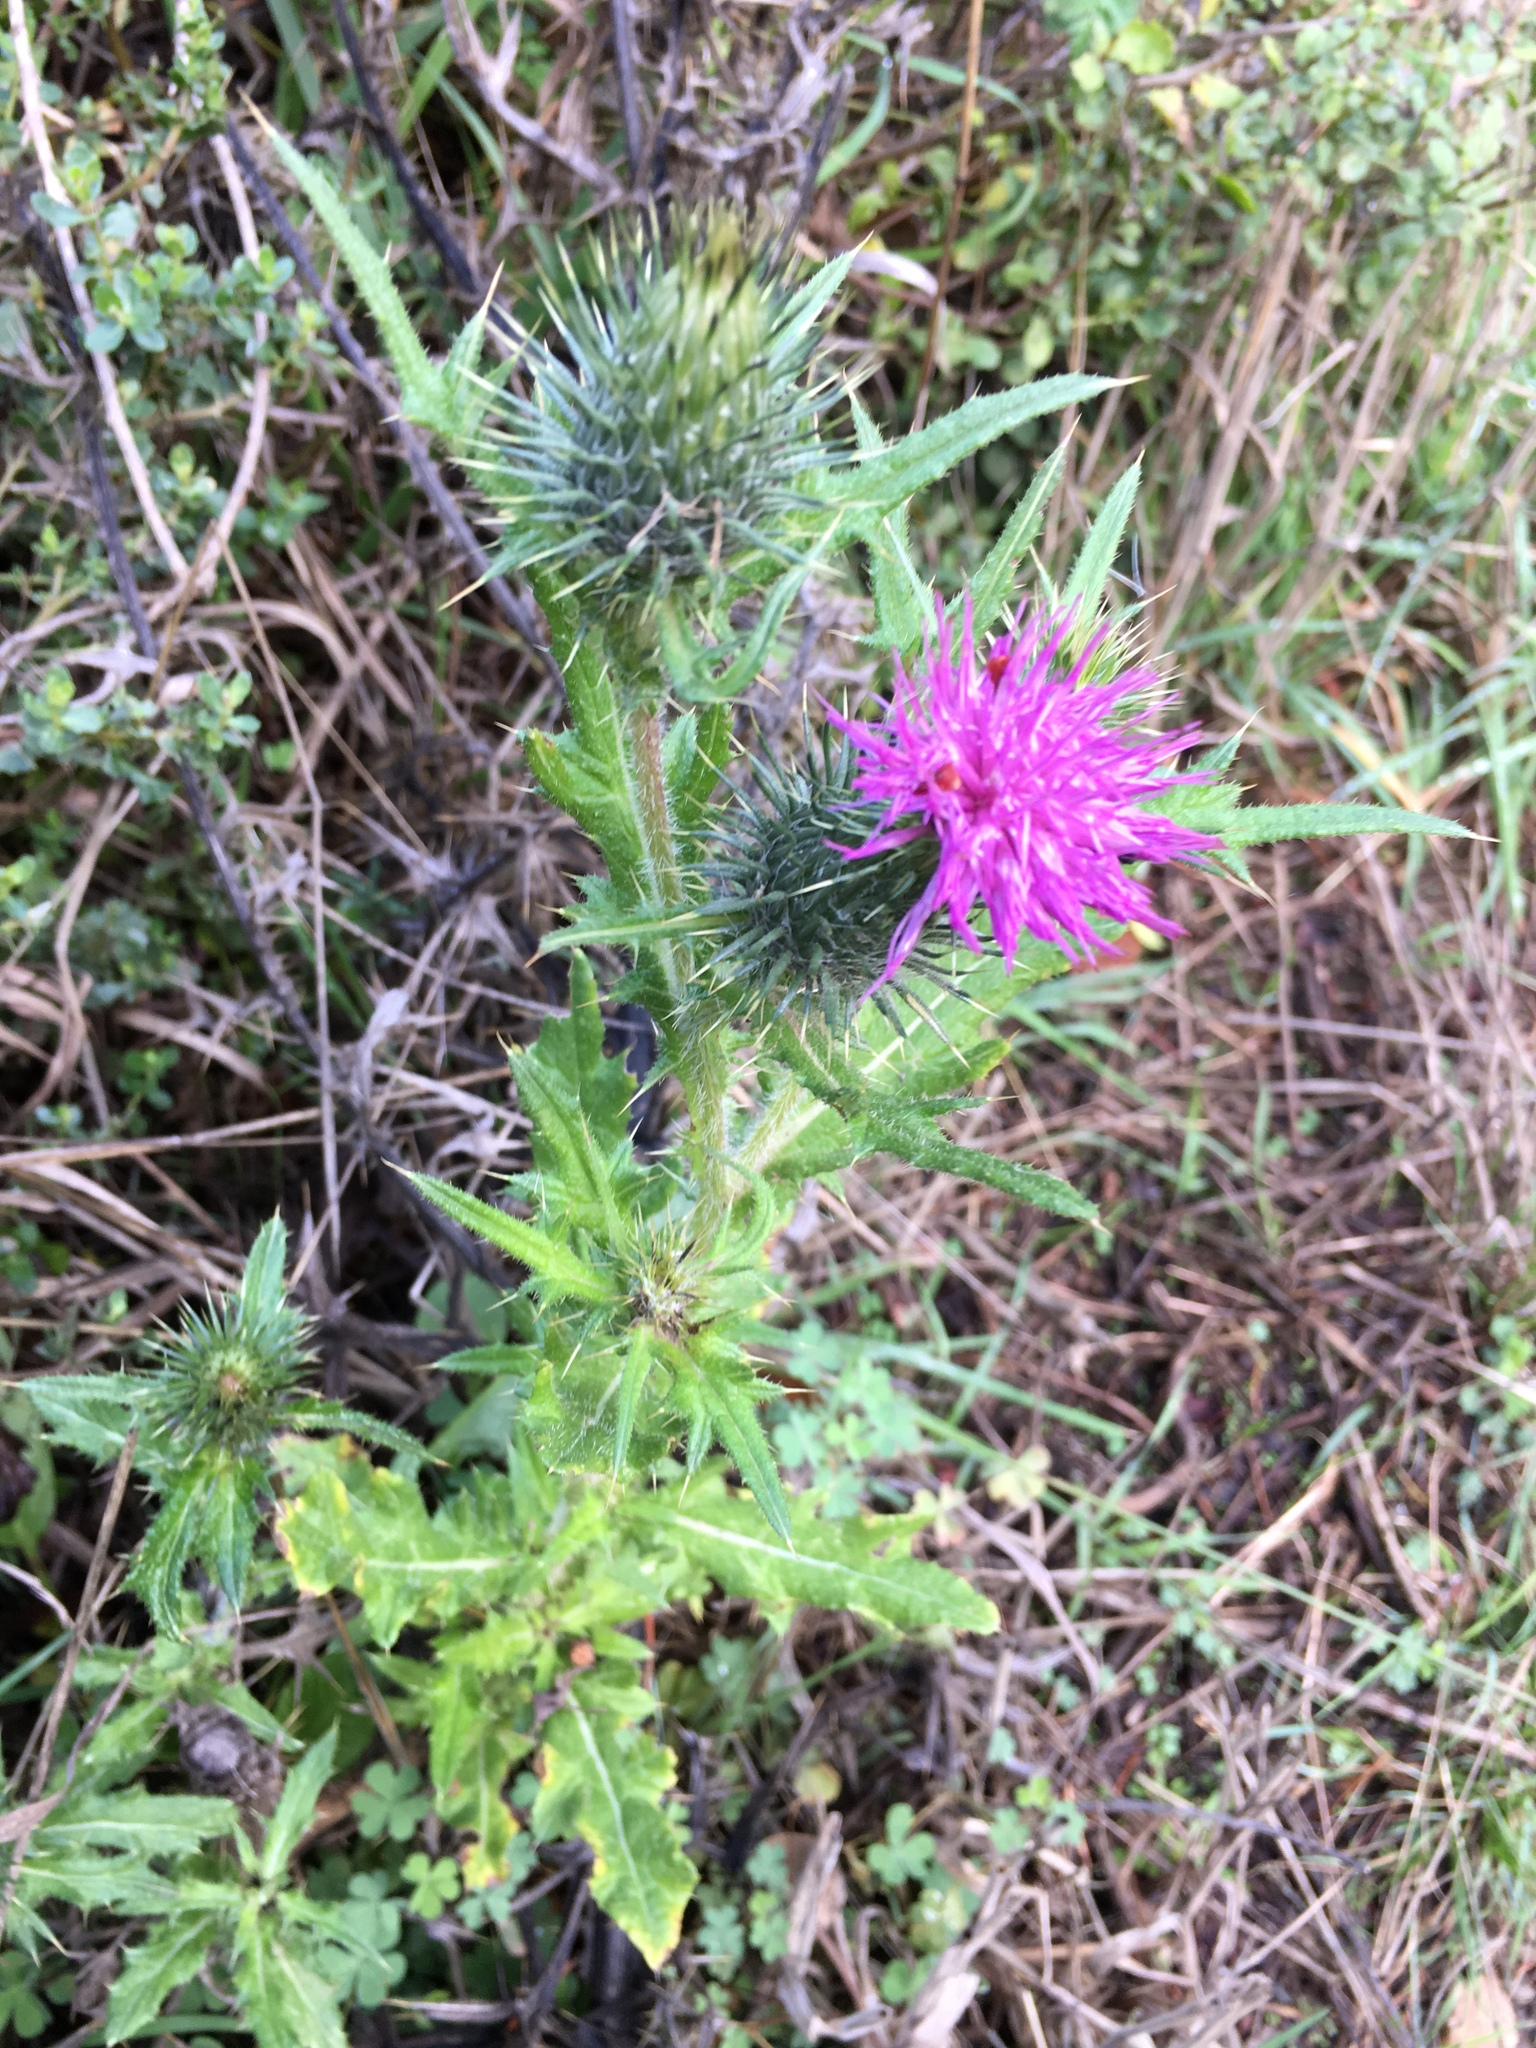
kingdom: Plantae
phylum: Tracheophyta
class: Magnoliopsida
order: Asterales
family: Asteraceae
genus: Cirsium
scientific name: Cirsium vulgare
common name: Bull thistle
